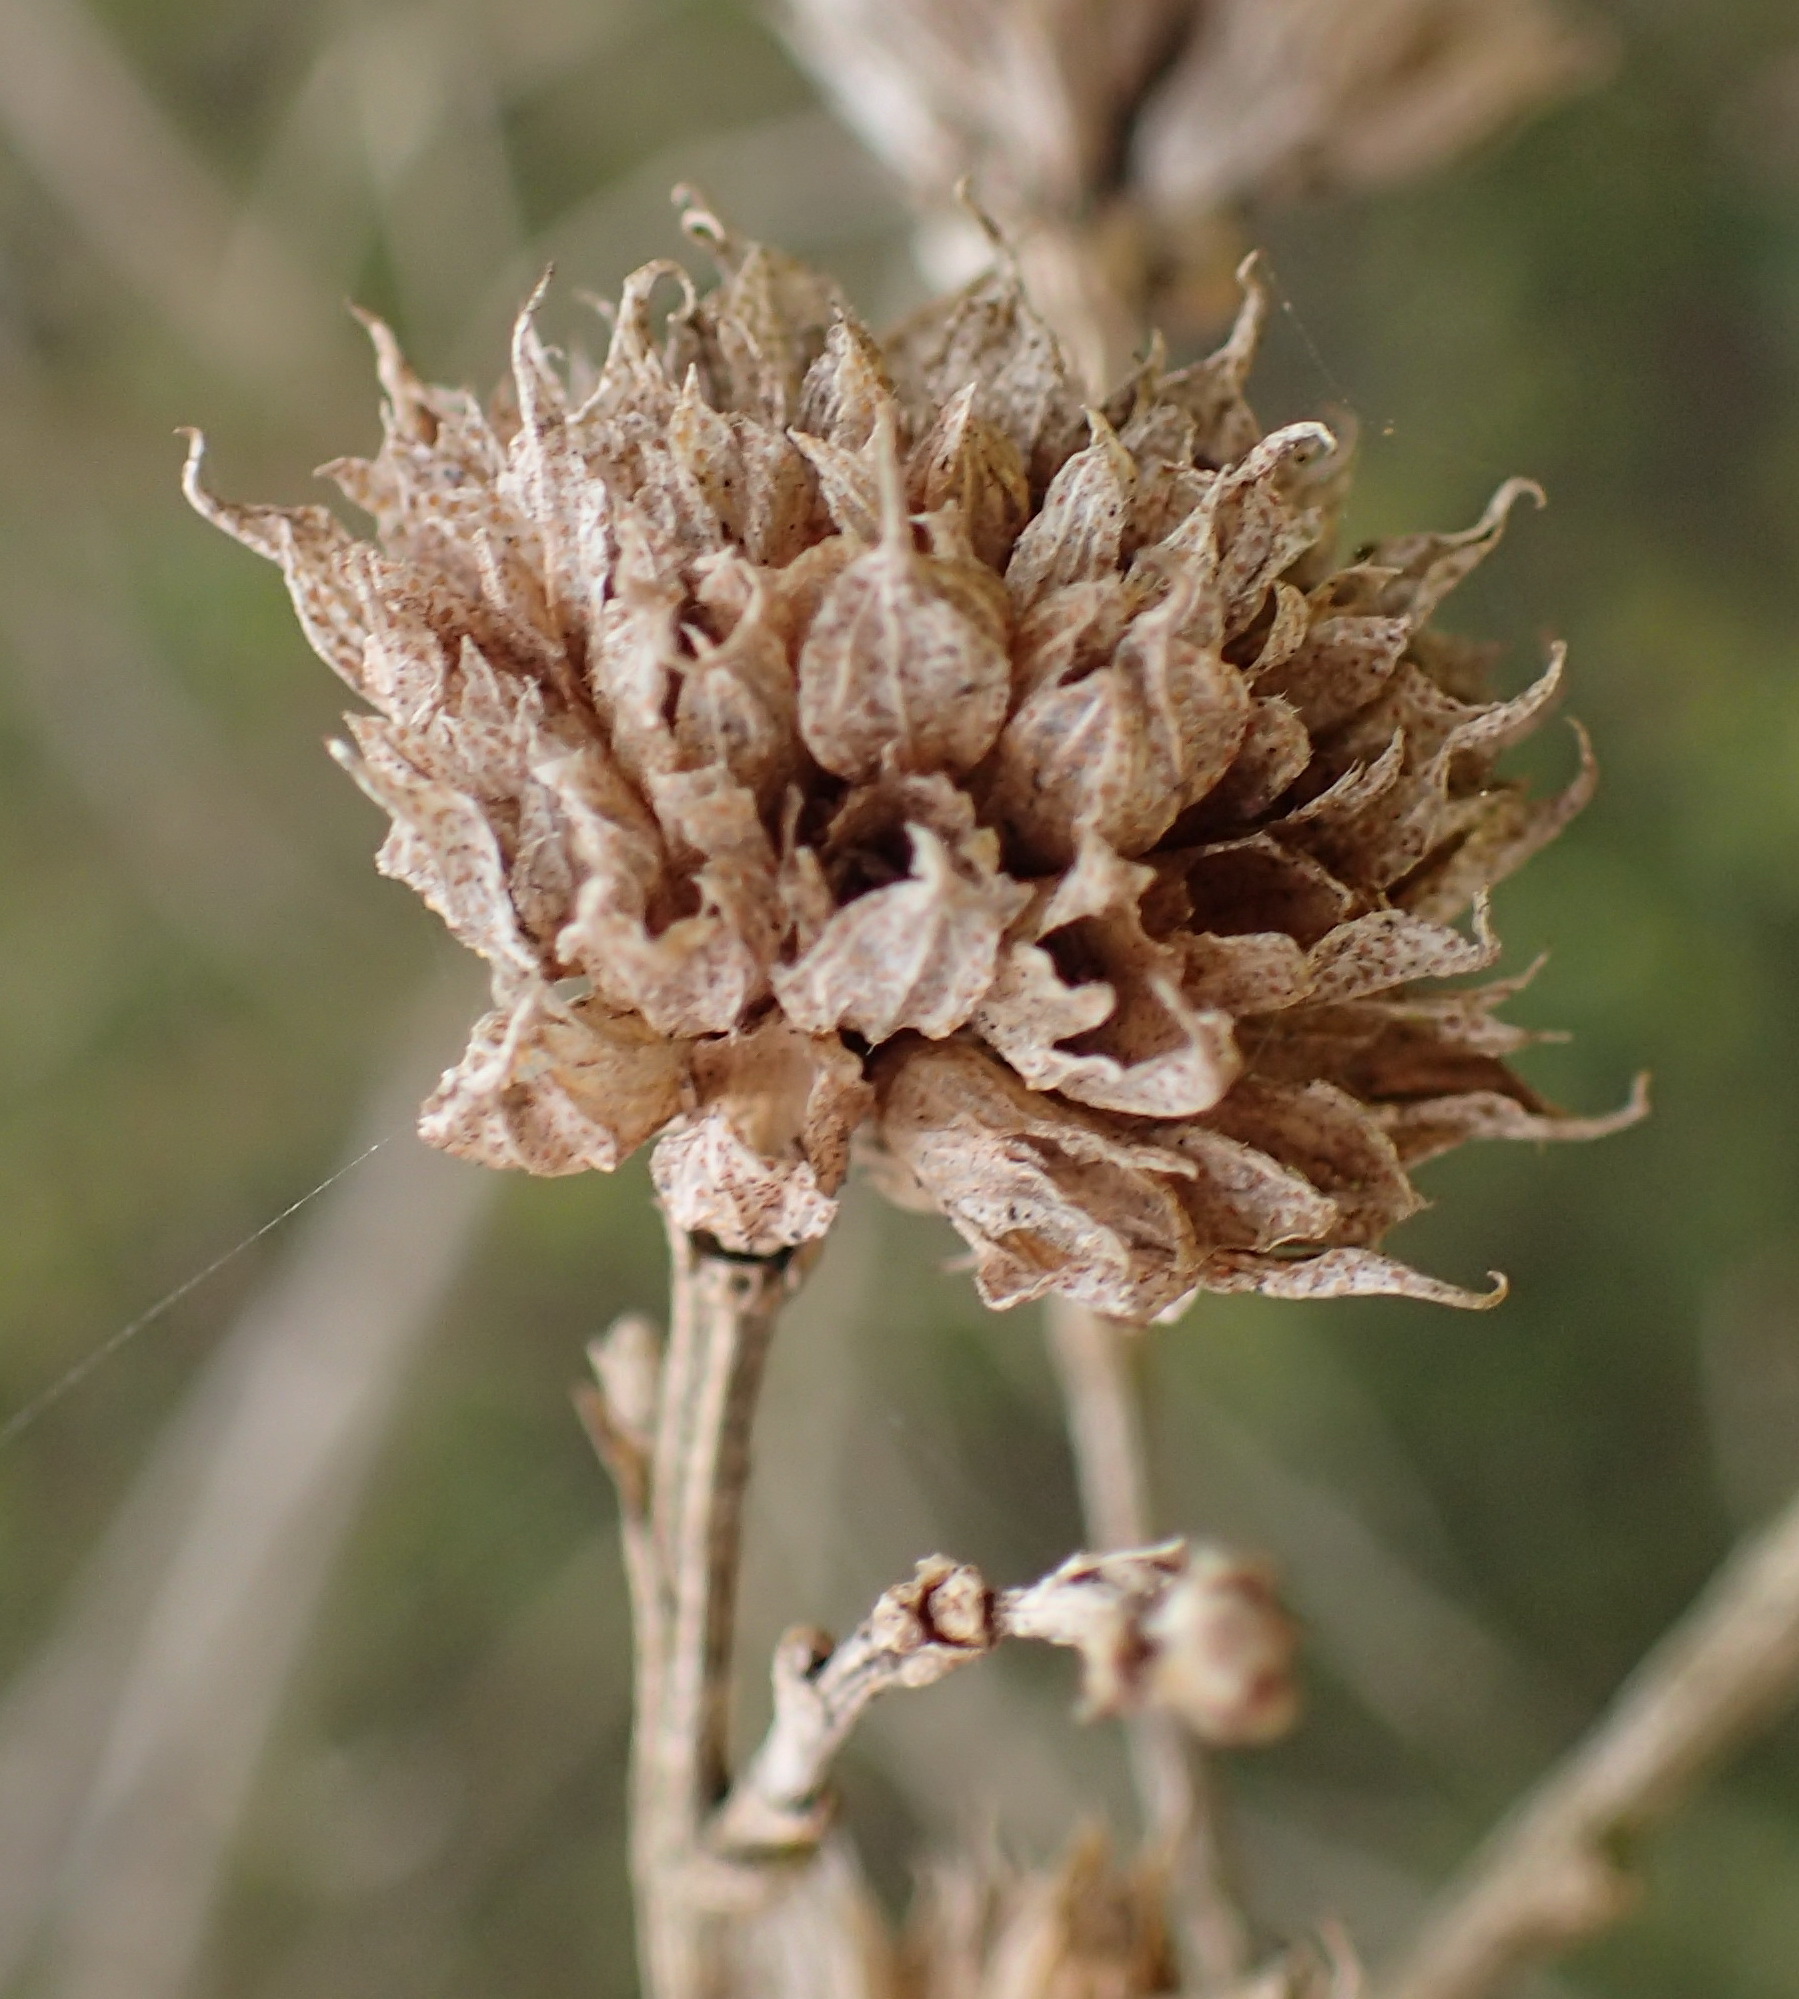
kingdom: Plantae
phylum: Tracheophyta
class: Magnoliopsida
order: Fabales
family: Fabaceae
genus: Psoralea
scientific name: Psoralea acuminata
